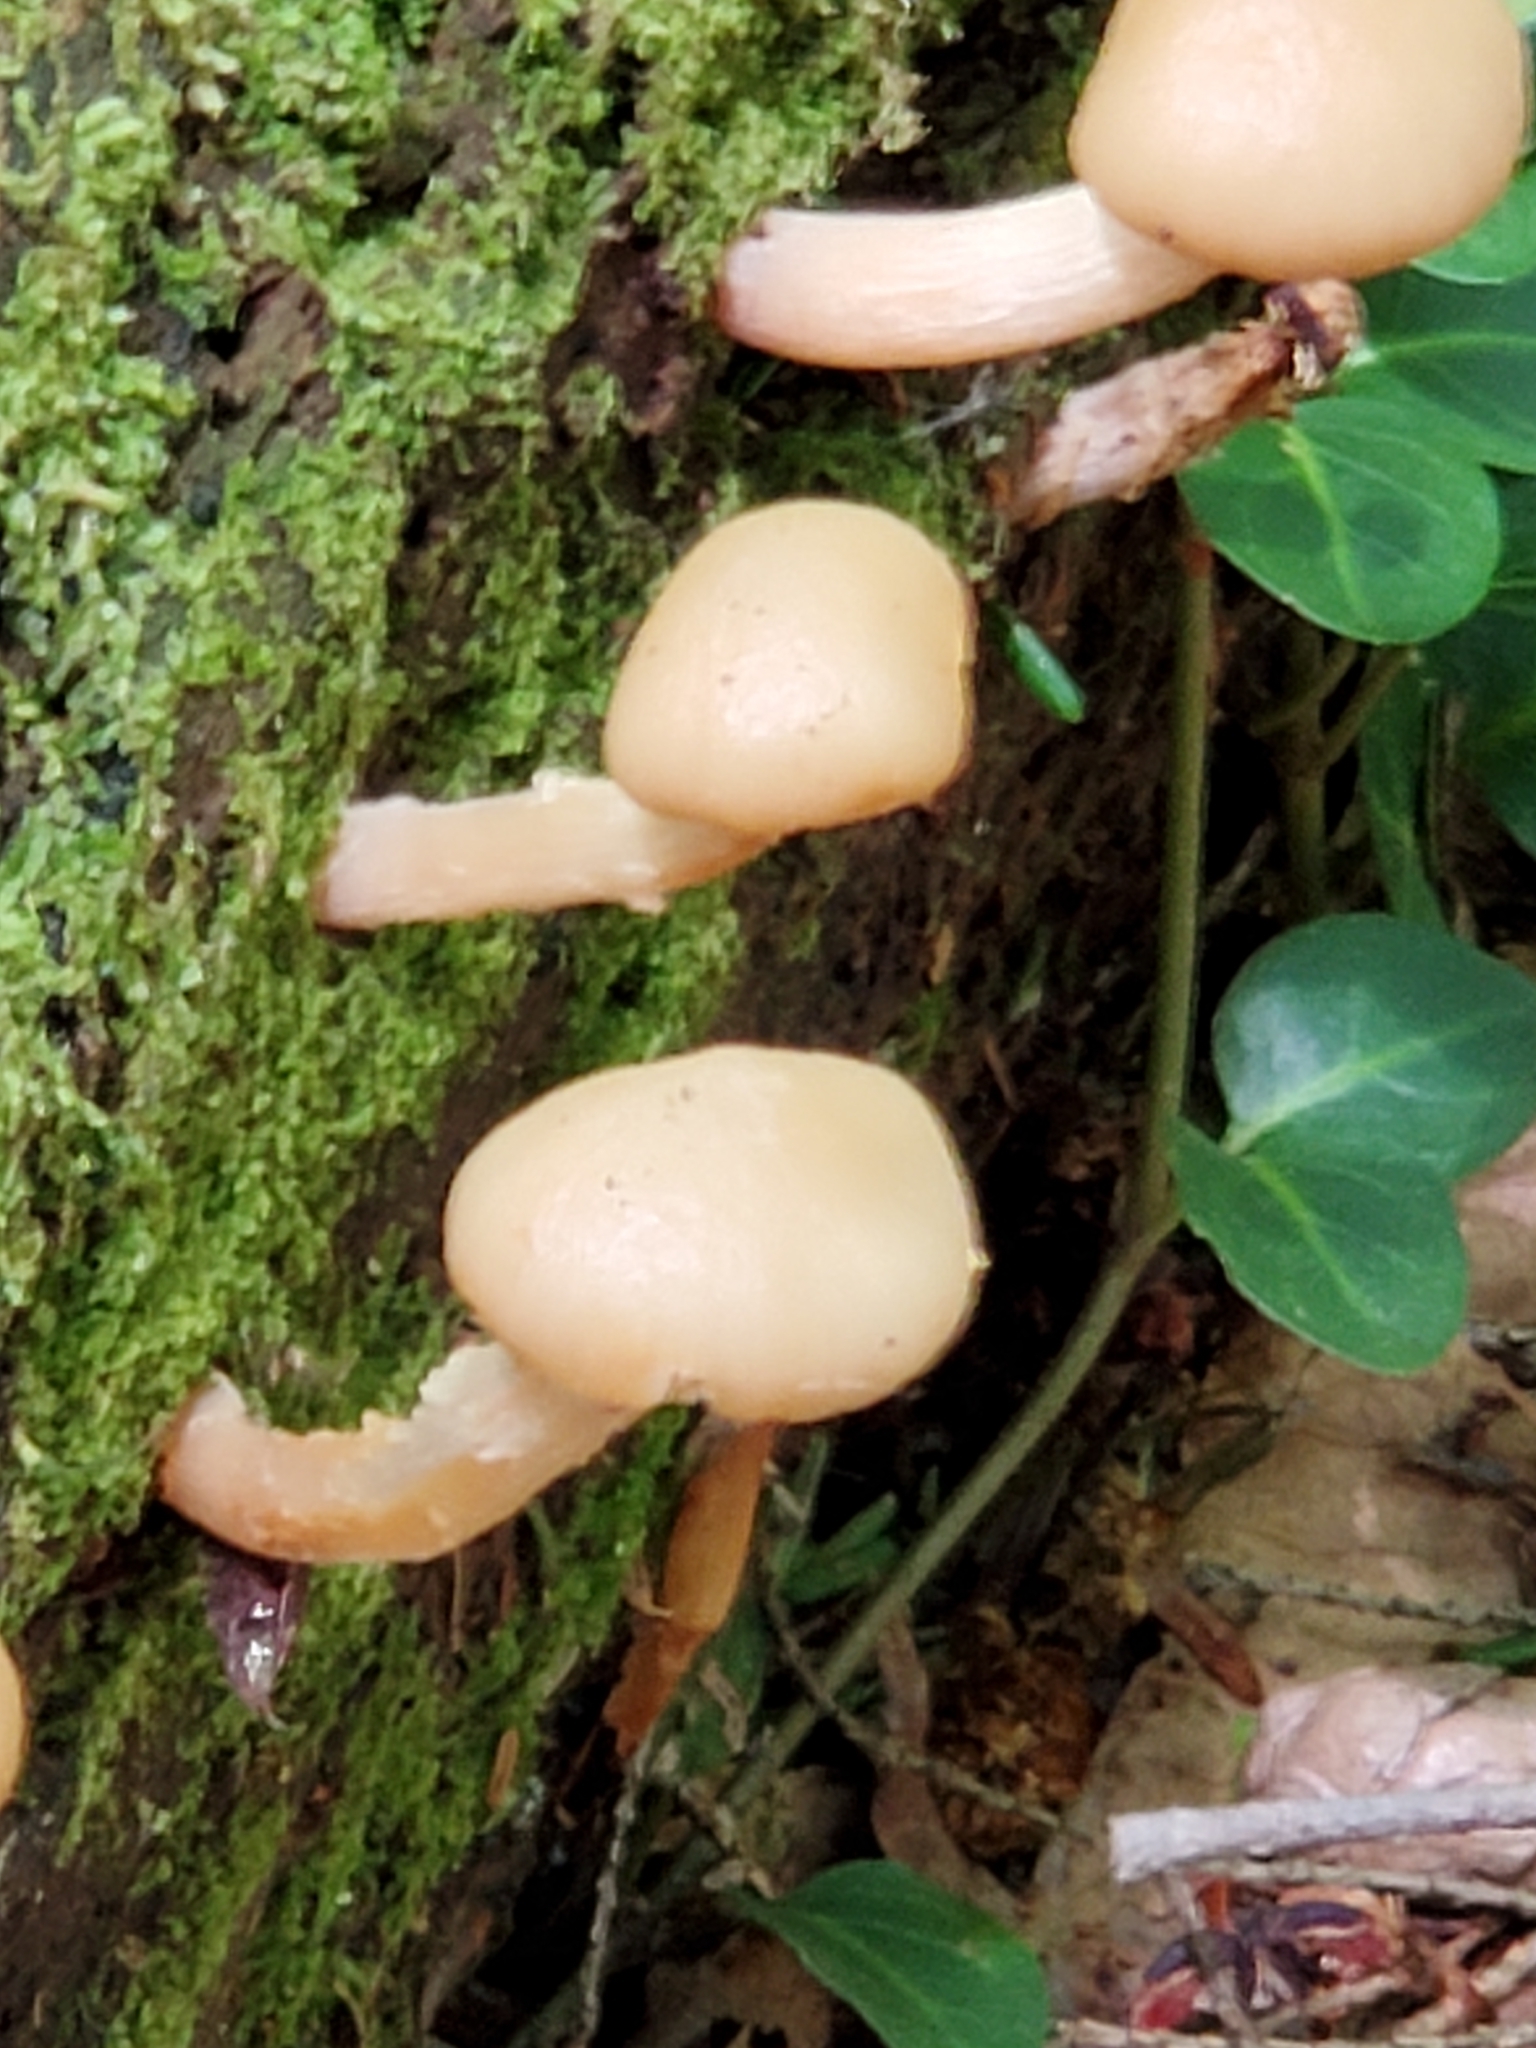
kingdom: Fungi
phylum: Basidiomycota
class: Agaricomycetes
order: Agaricales
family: Strophariaceae
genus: Kuehneromyces
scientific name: Kuehneromyces marginellus
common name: Sheathed woodtuft
